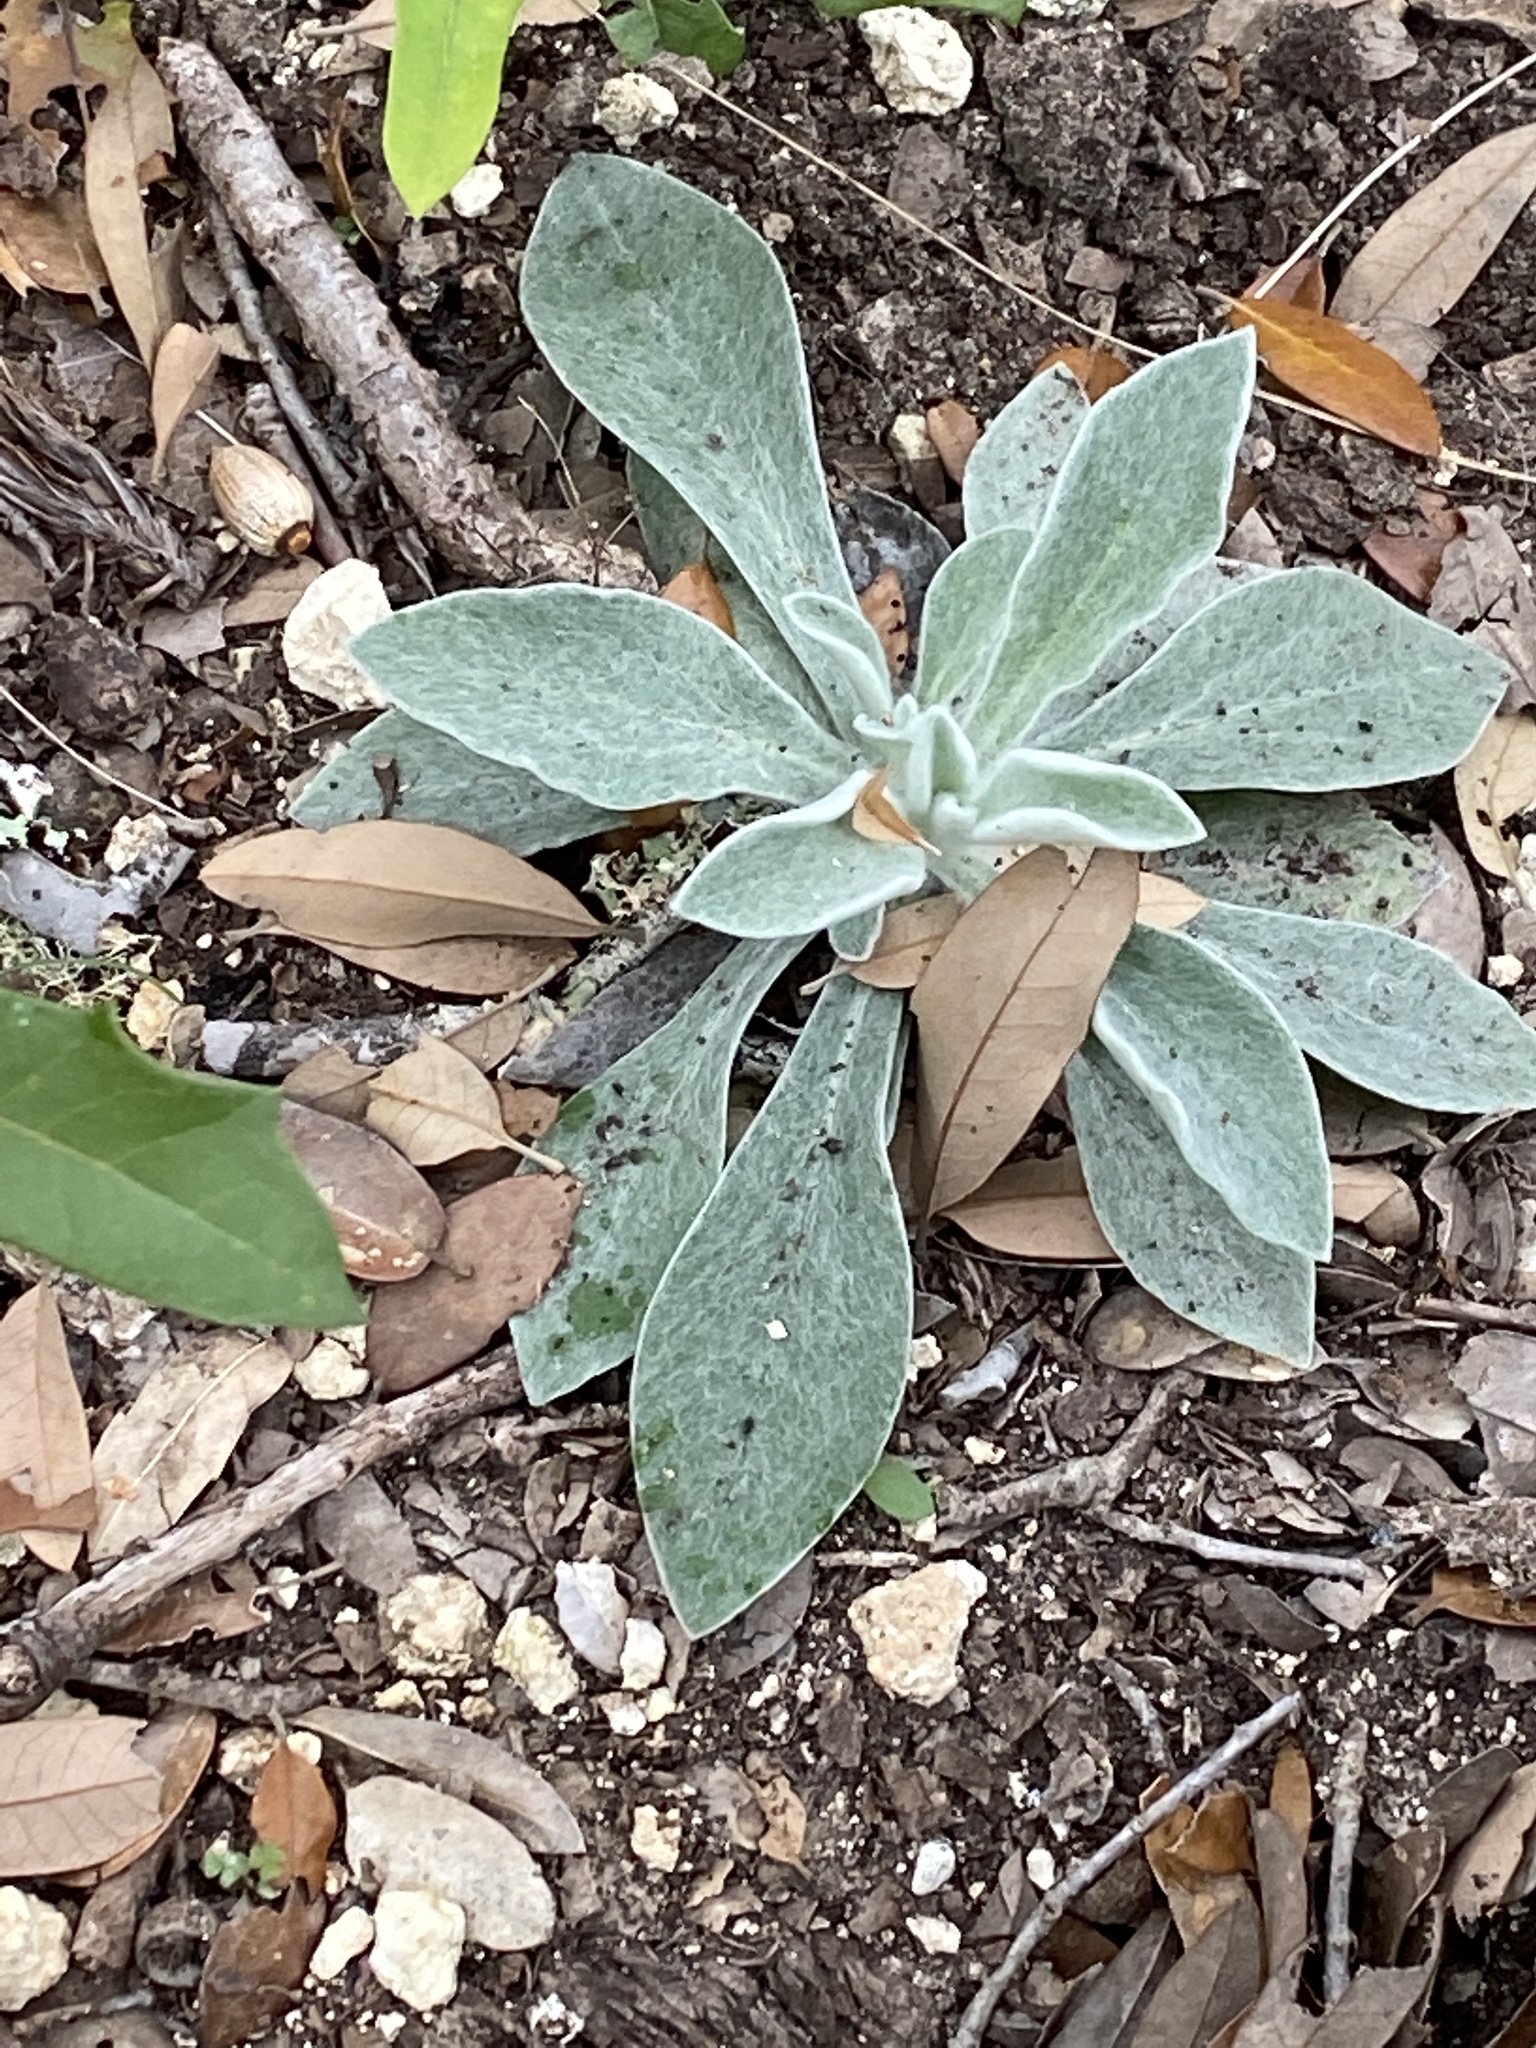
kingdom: Plantae
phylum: Tracheophyta
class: Magnoliopsida
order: Asterales
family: Asteraceae
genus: Pseudognaphalium
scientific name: Pseudognaphalium obtusifolium
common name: Eastern rabbit-tobacco
